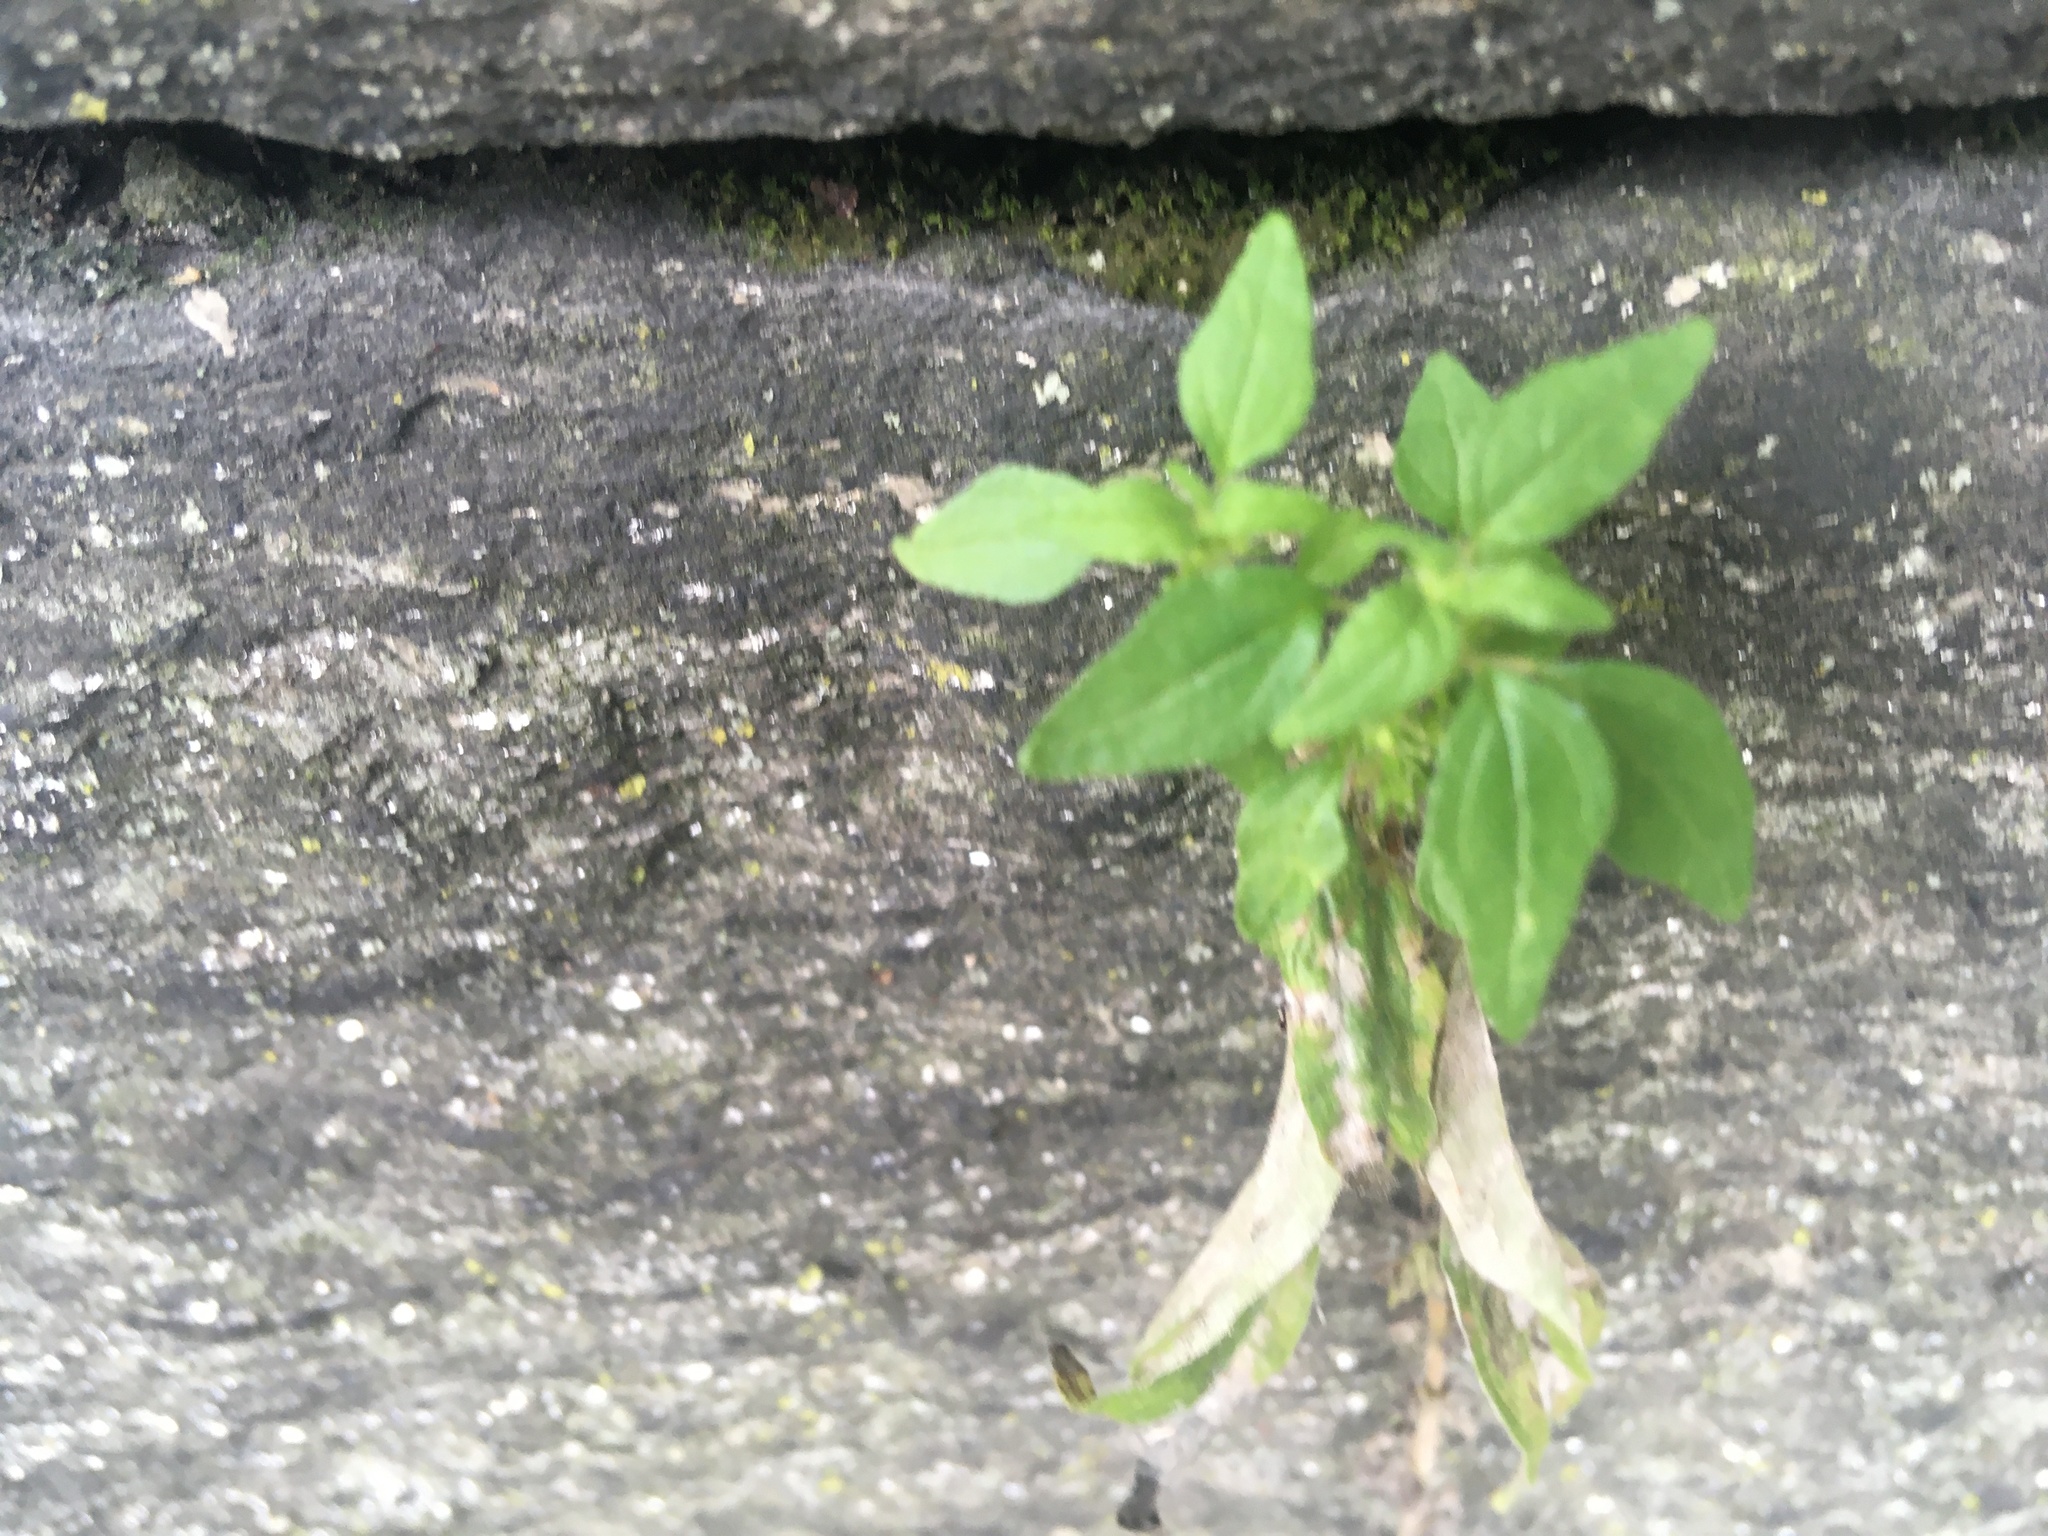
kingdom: Plantae
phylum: Tracheophyta
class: Magnoliopsida
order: Rosales
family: Urticaceae
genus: Parietaria
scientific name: Parietaria pensylvanica
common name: Pennsylvania pellitory
